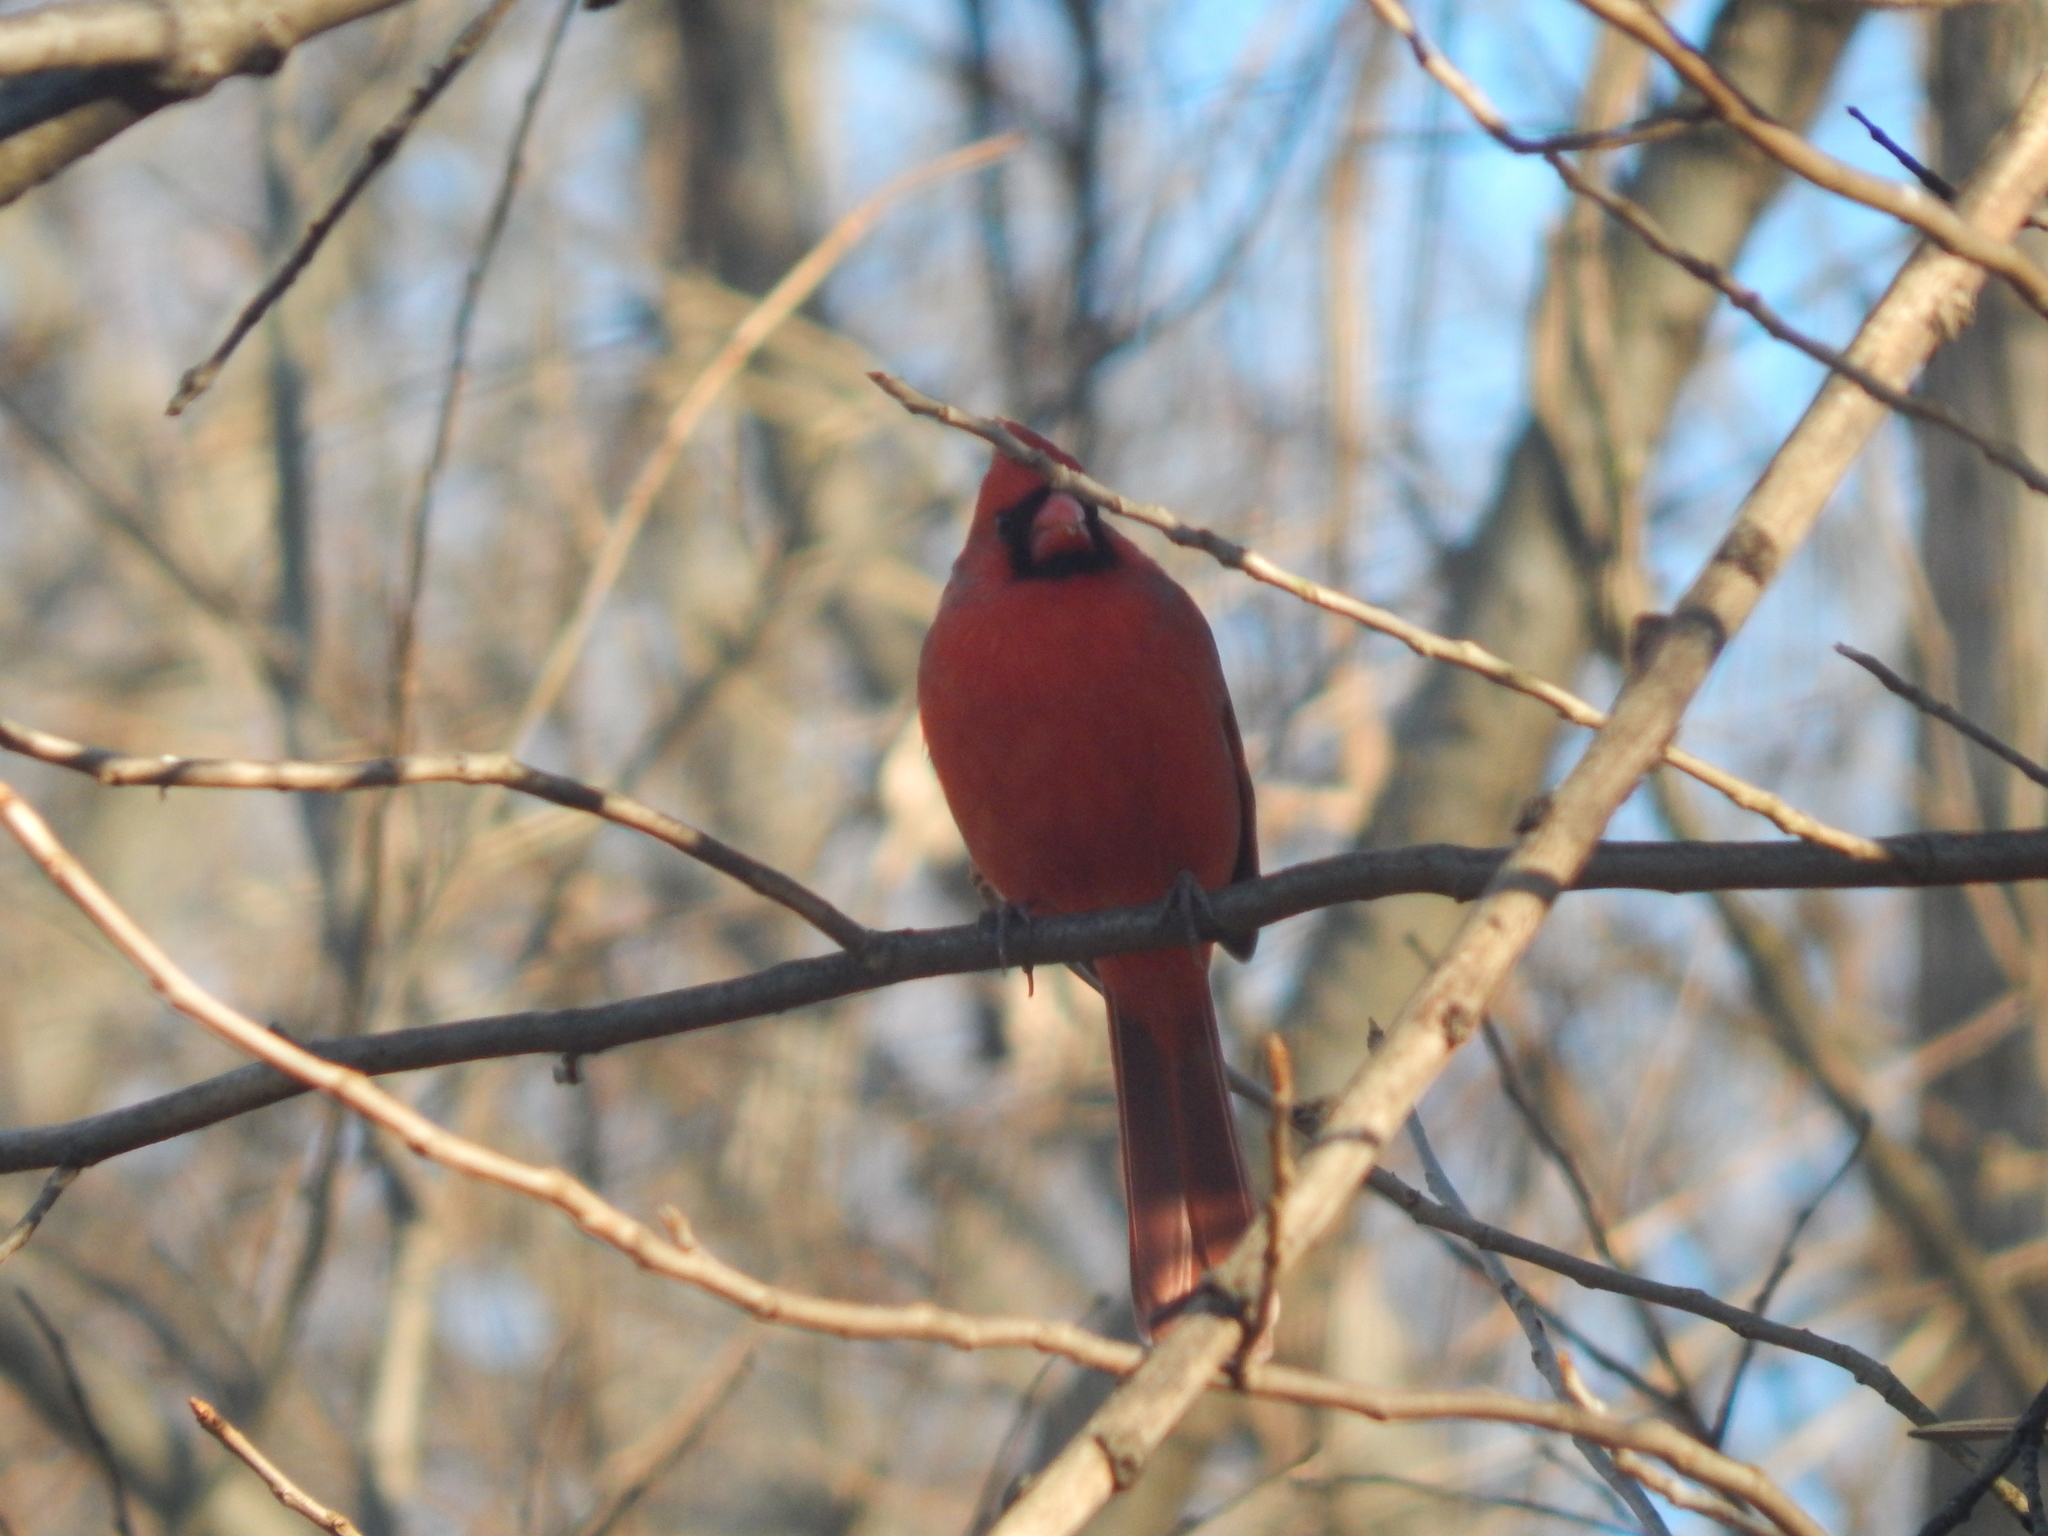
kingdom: Animalia
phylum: Chordata
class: Aves
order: Passeriformes
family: Cardinalidae
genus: Cardinalis
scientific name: Cardinalis cardinalis
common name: Northern cardinal
